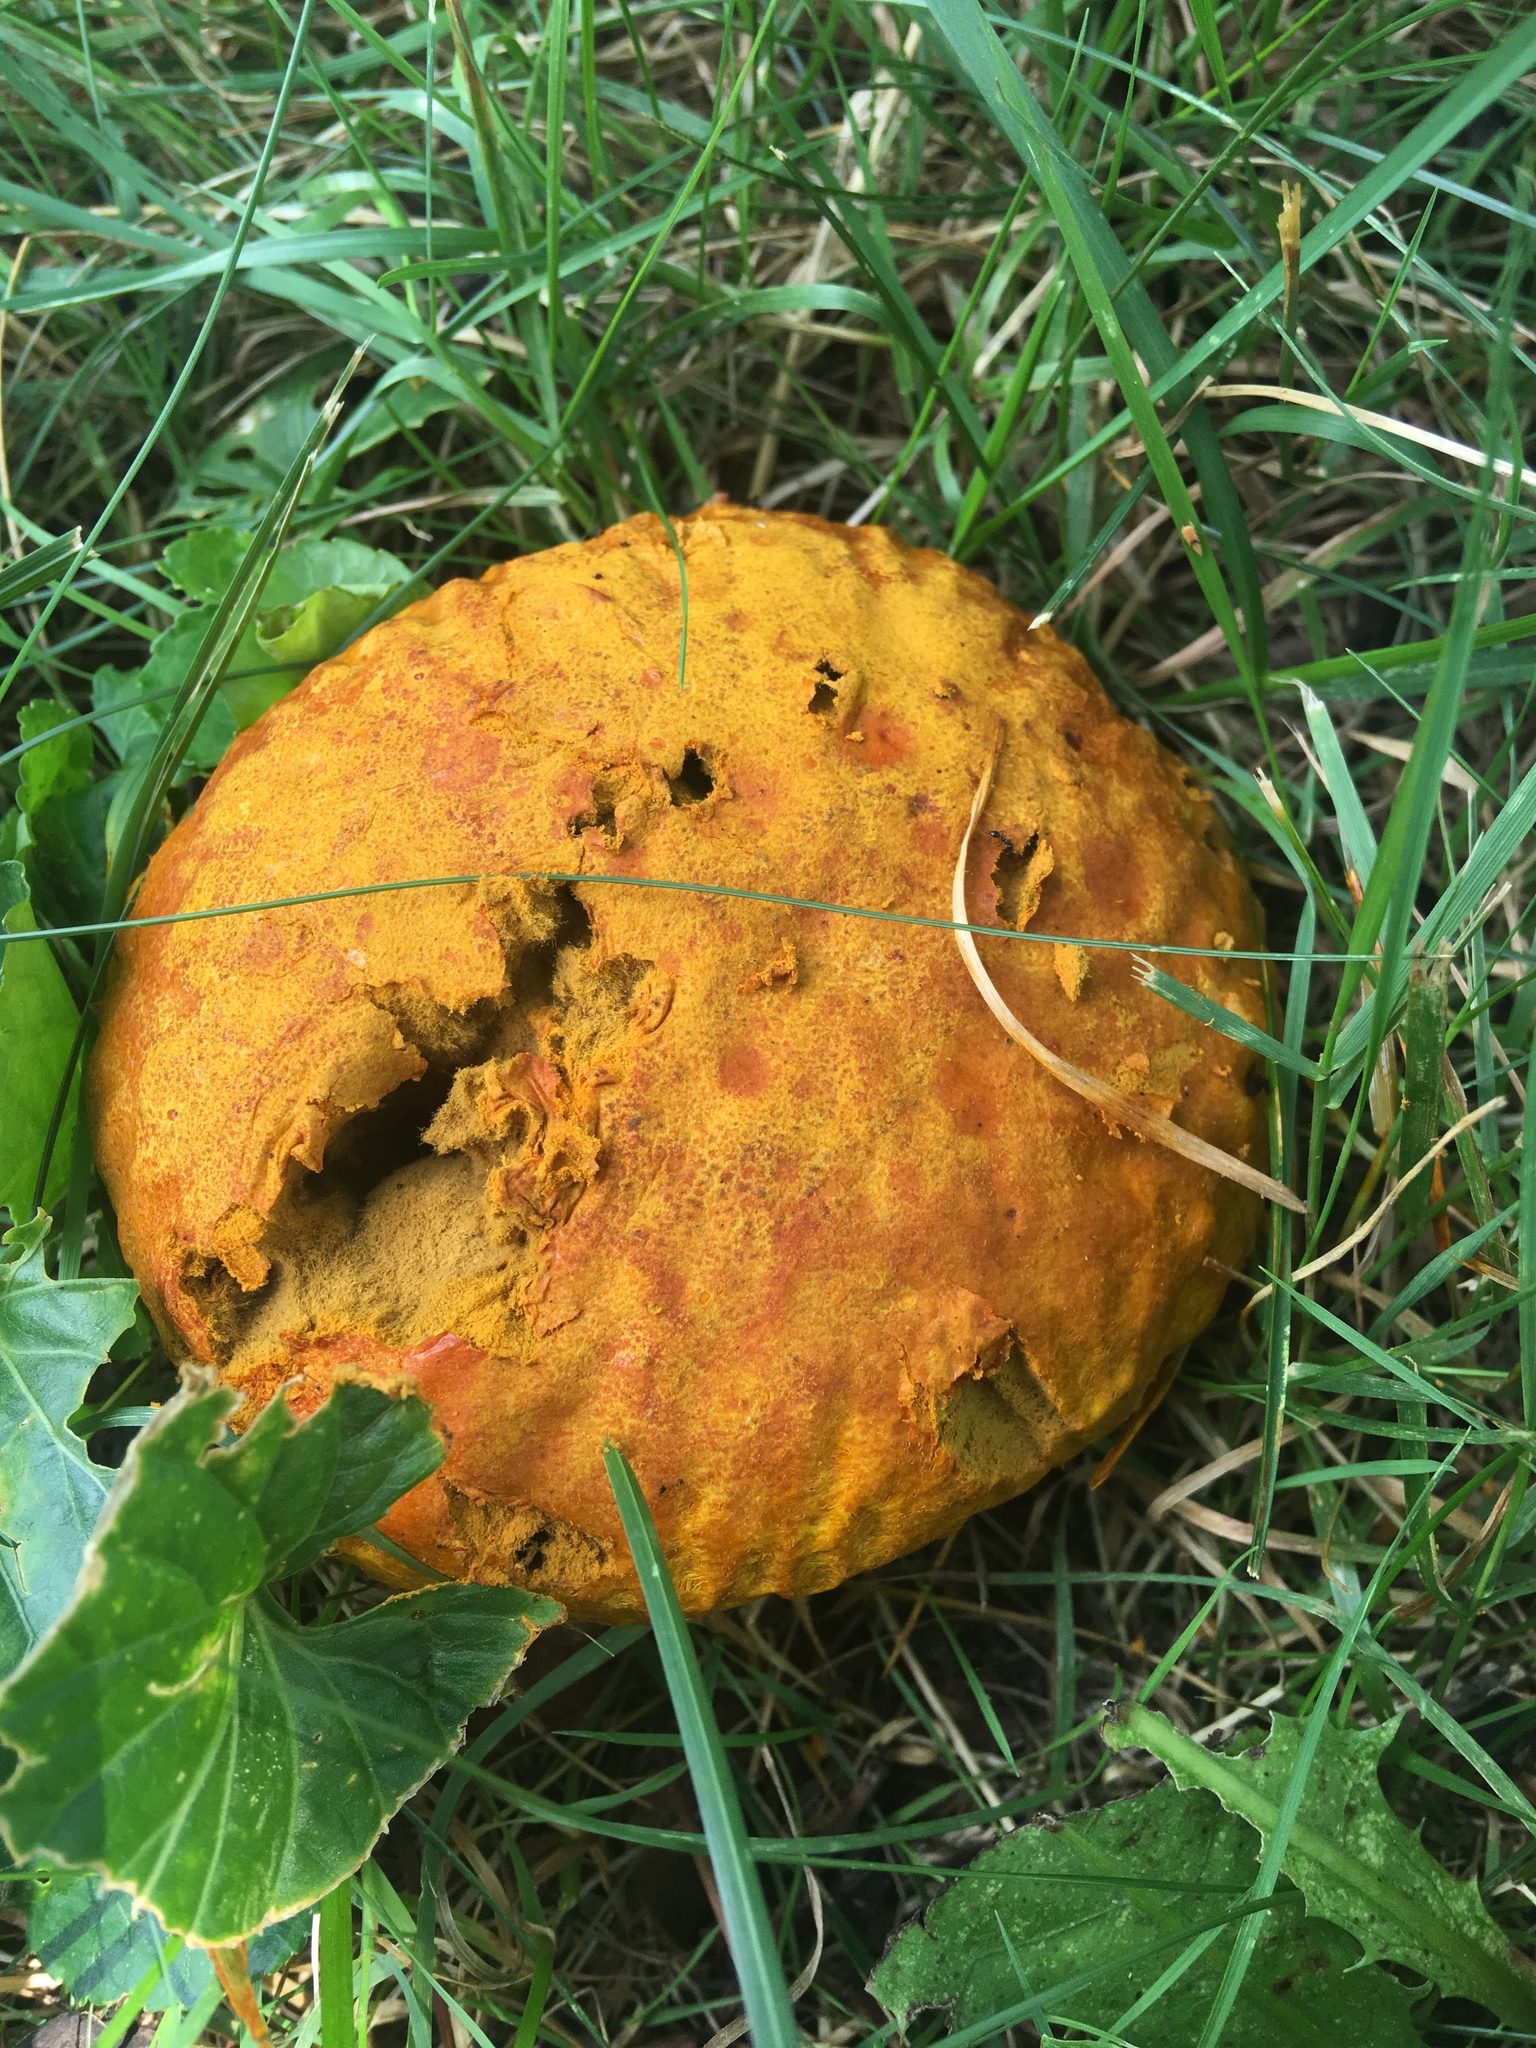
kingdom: Fungi
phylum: Basidiomycota
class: Agaricomycetes
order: Agaricales
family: Lycoperdaceae
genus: Calvatia
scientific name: Calvatia candida
